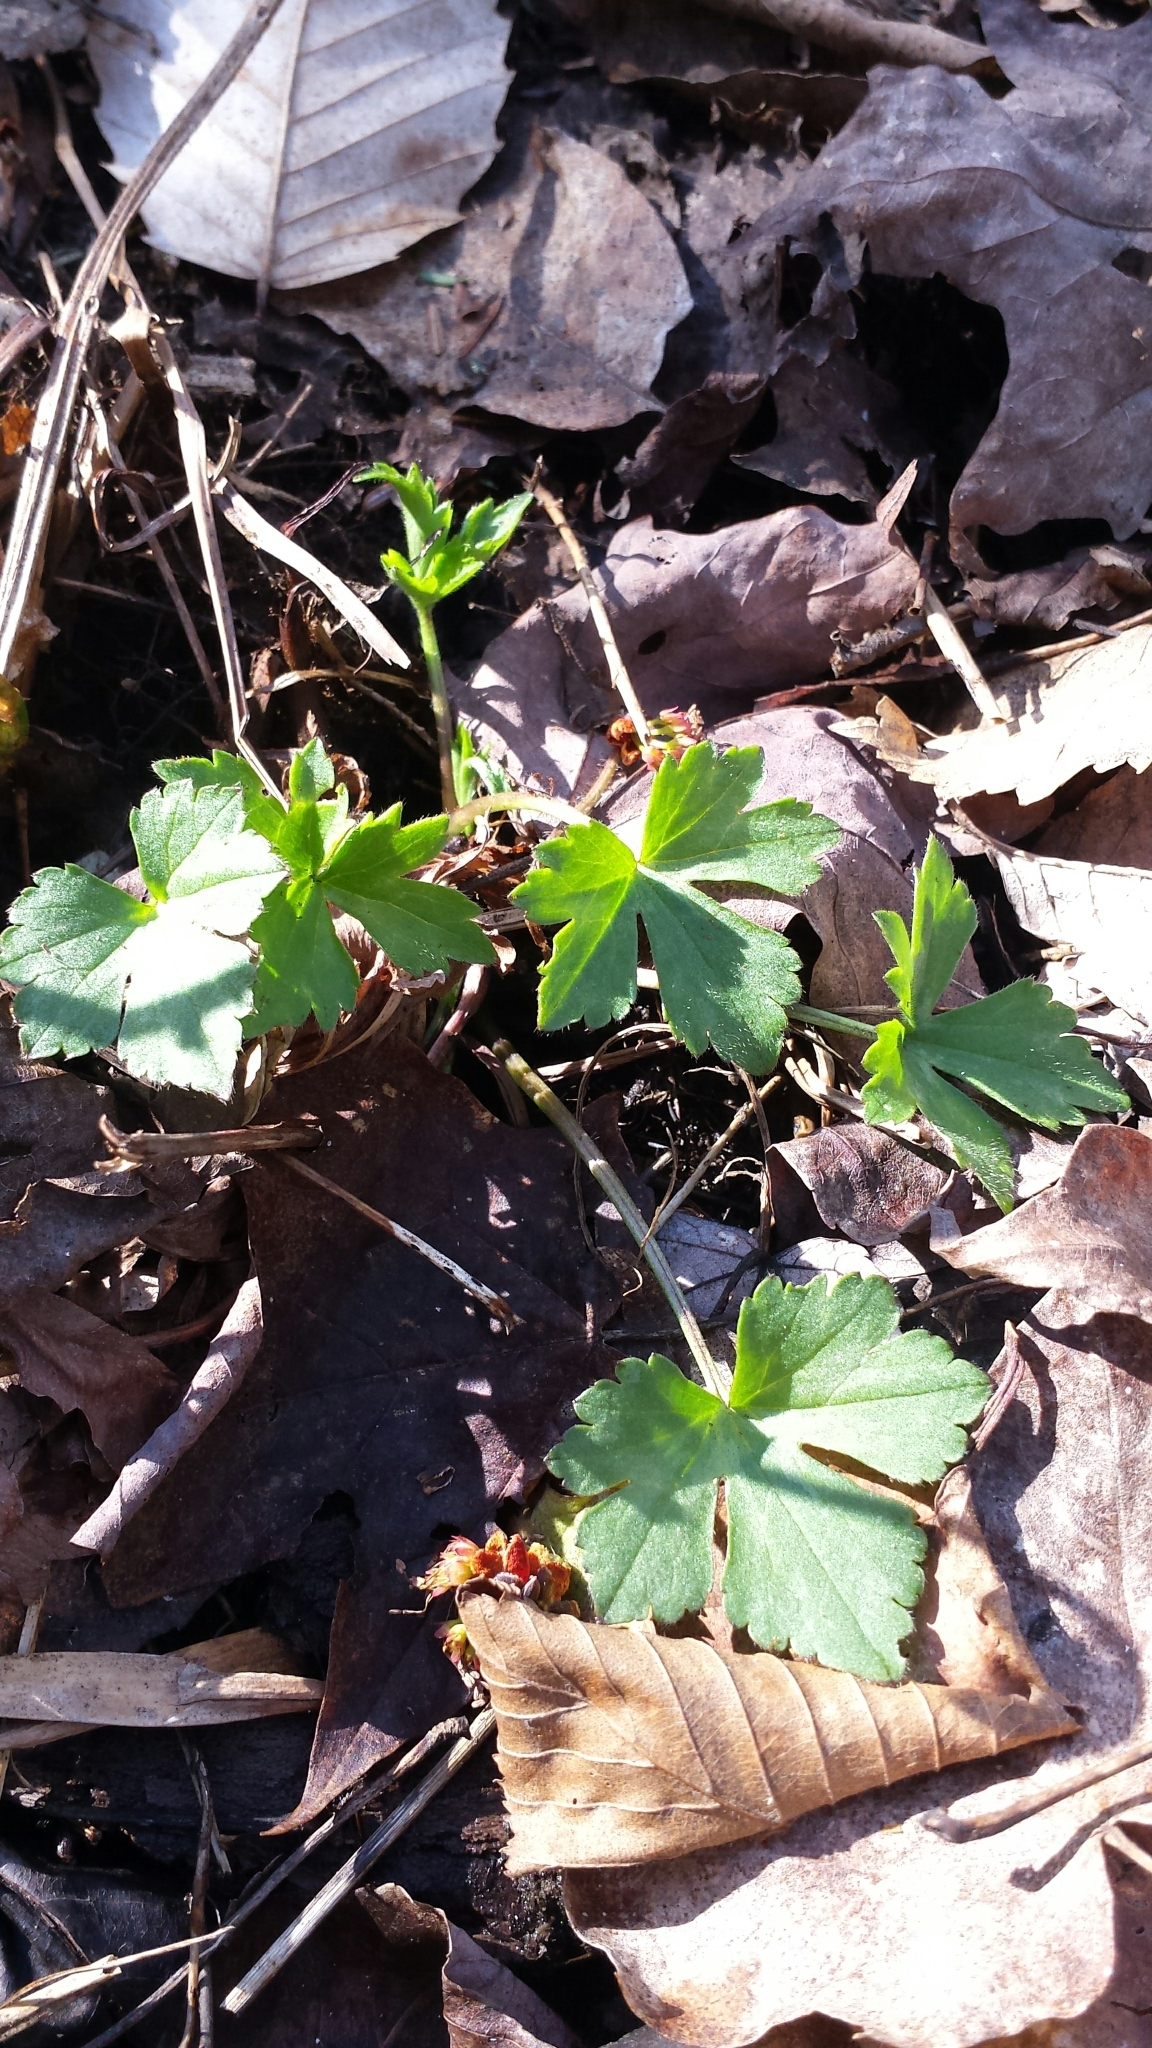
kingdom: Plantae
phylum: Tracheophyta
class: Magnoliopsida
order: Ranunculales
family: Ranunculaceae
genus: Ranunculus
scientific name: Ranunculus recurvatus
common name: Blisterwort
